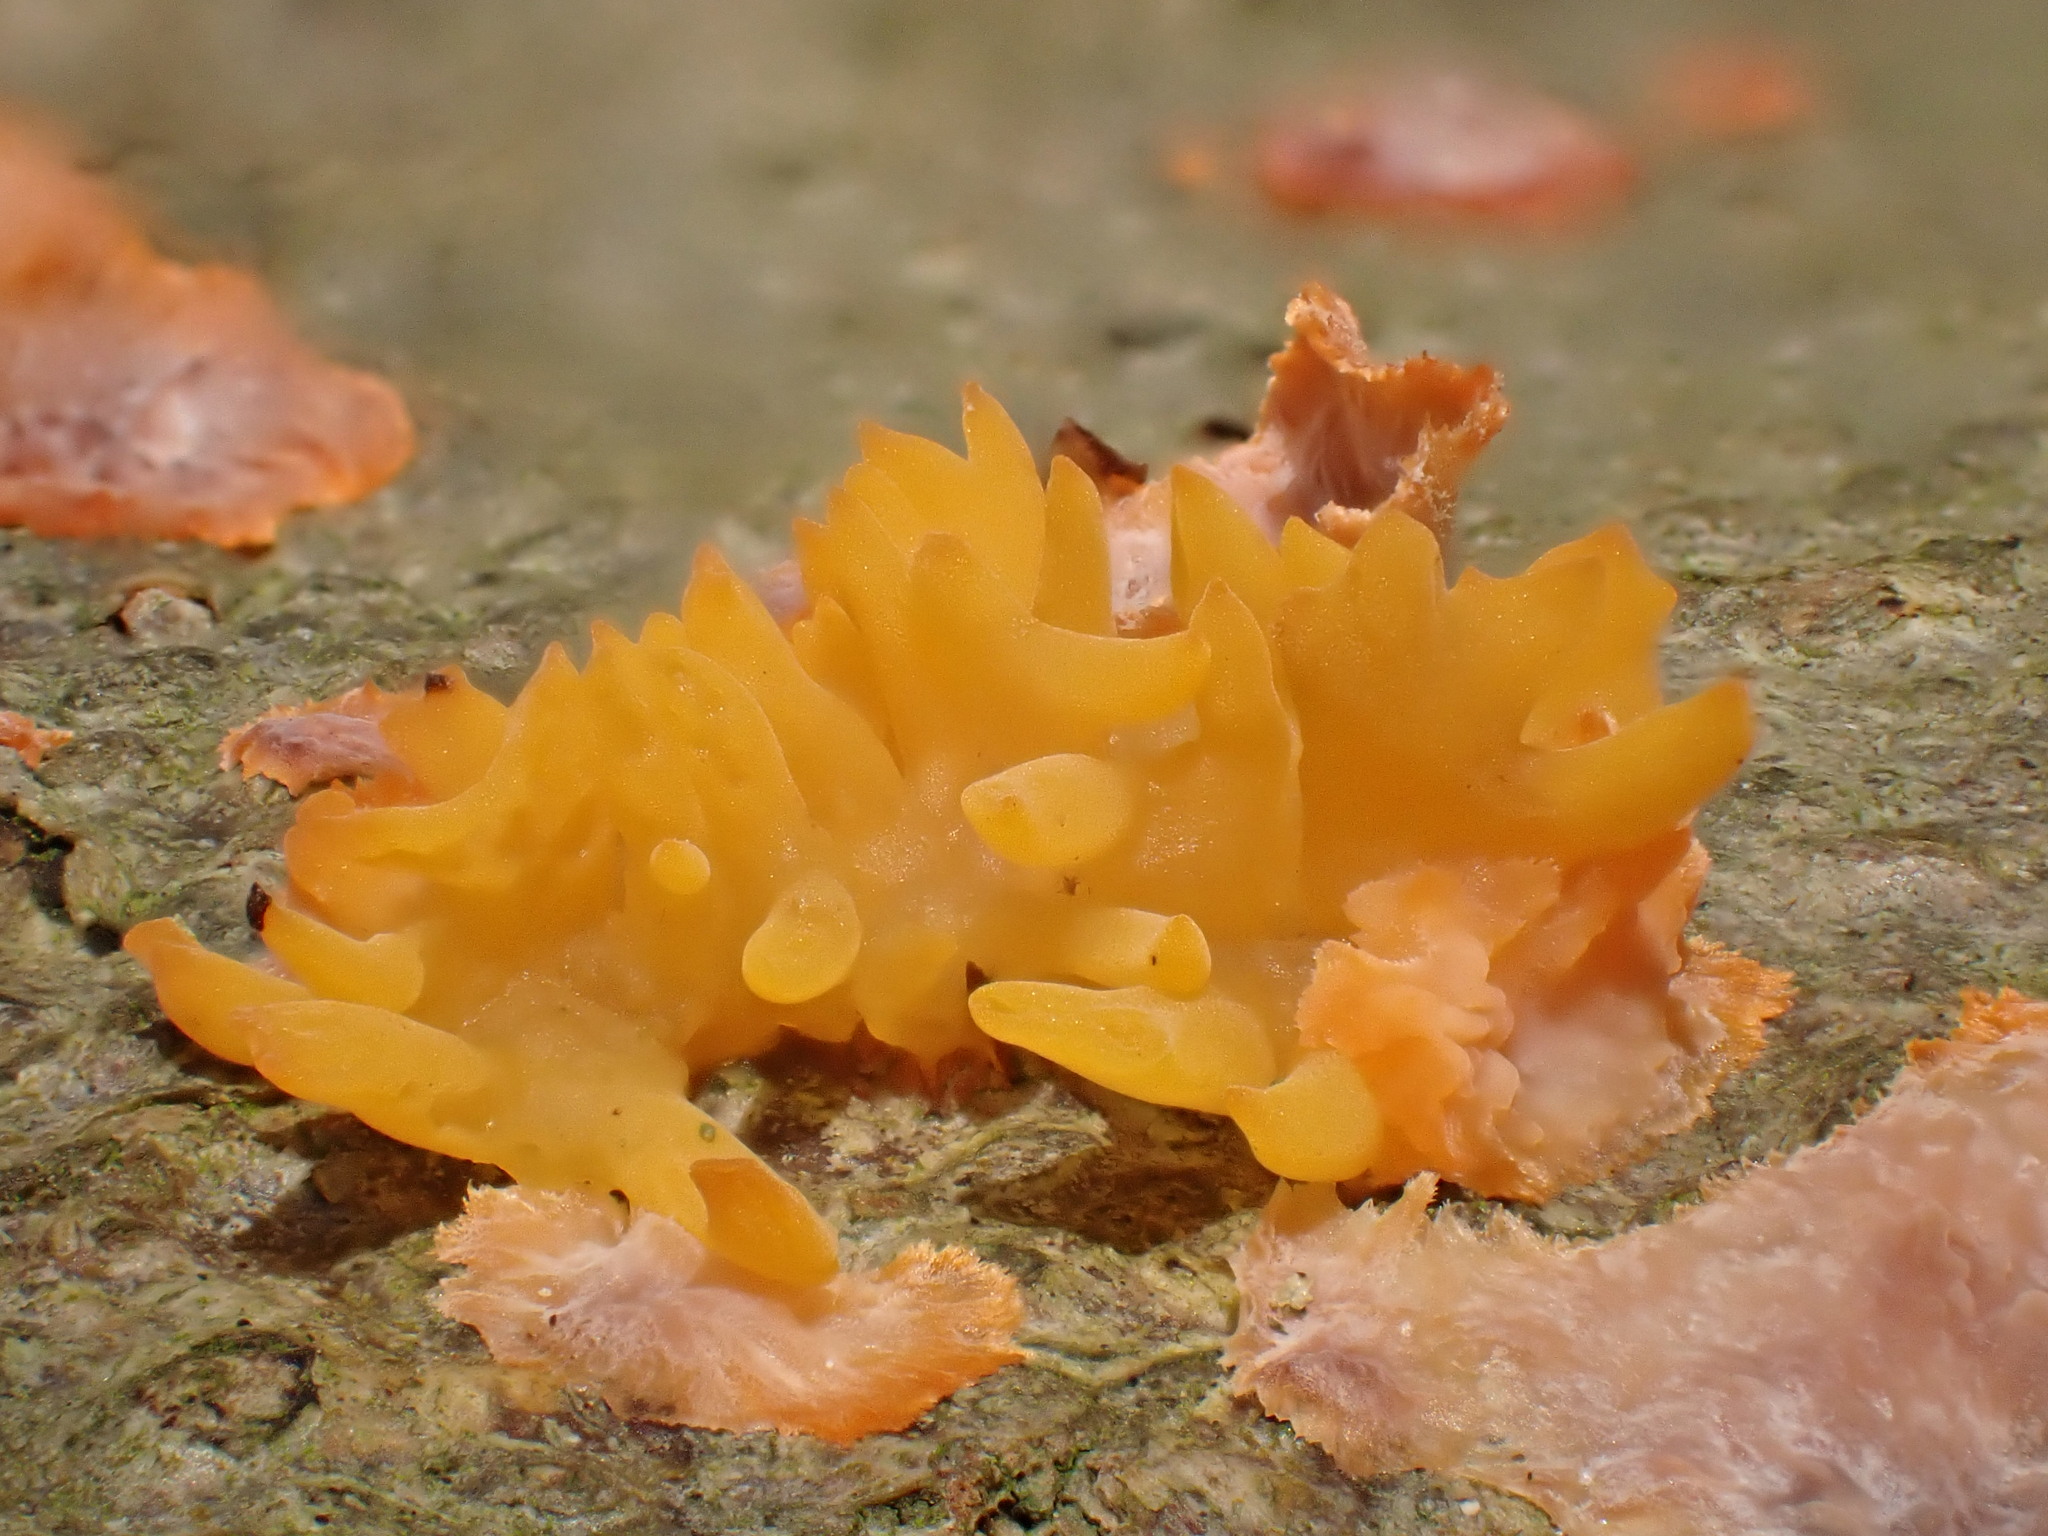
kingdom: Fungi
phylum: Basidiomycota
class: Dacrymycetes
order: Dacrymycetales
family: Dacrymycetaceae
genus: Calocera
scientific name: Calocera cornea
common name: Small stagshorn
